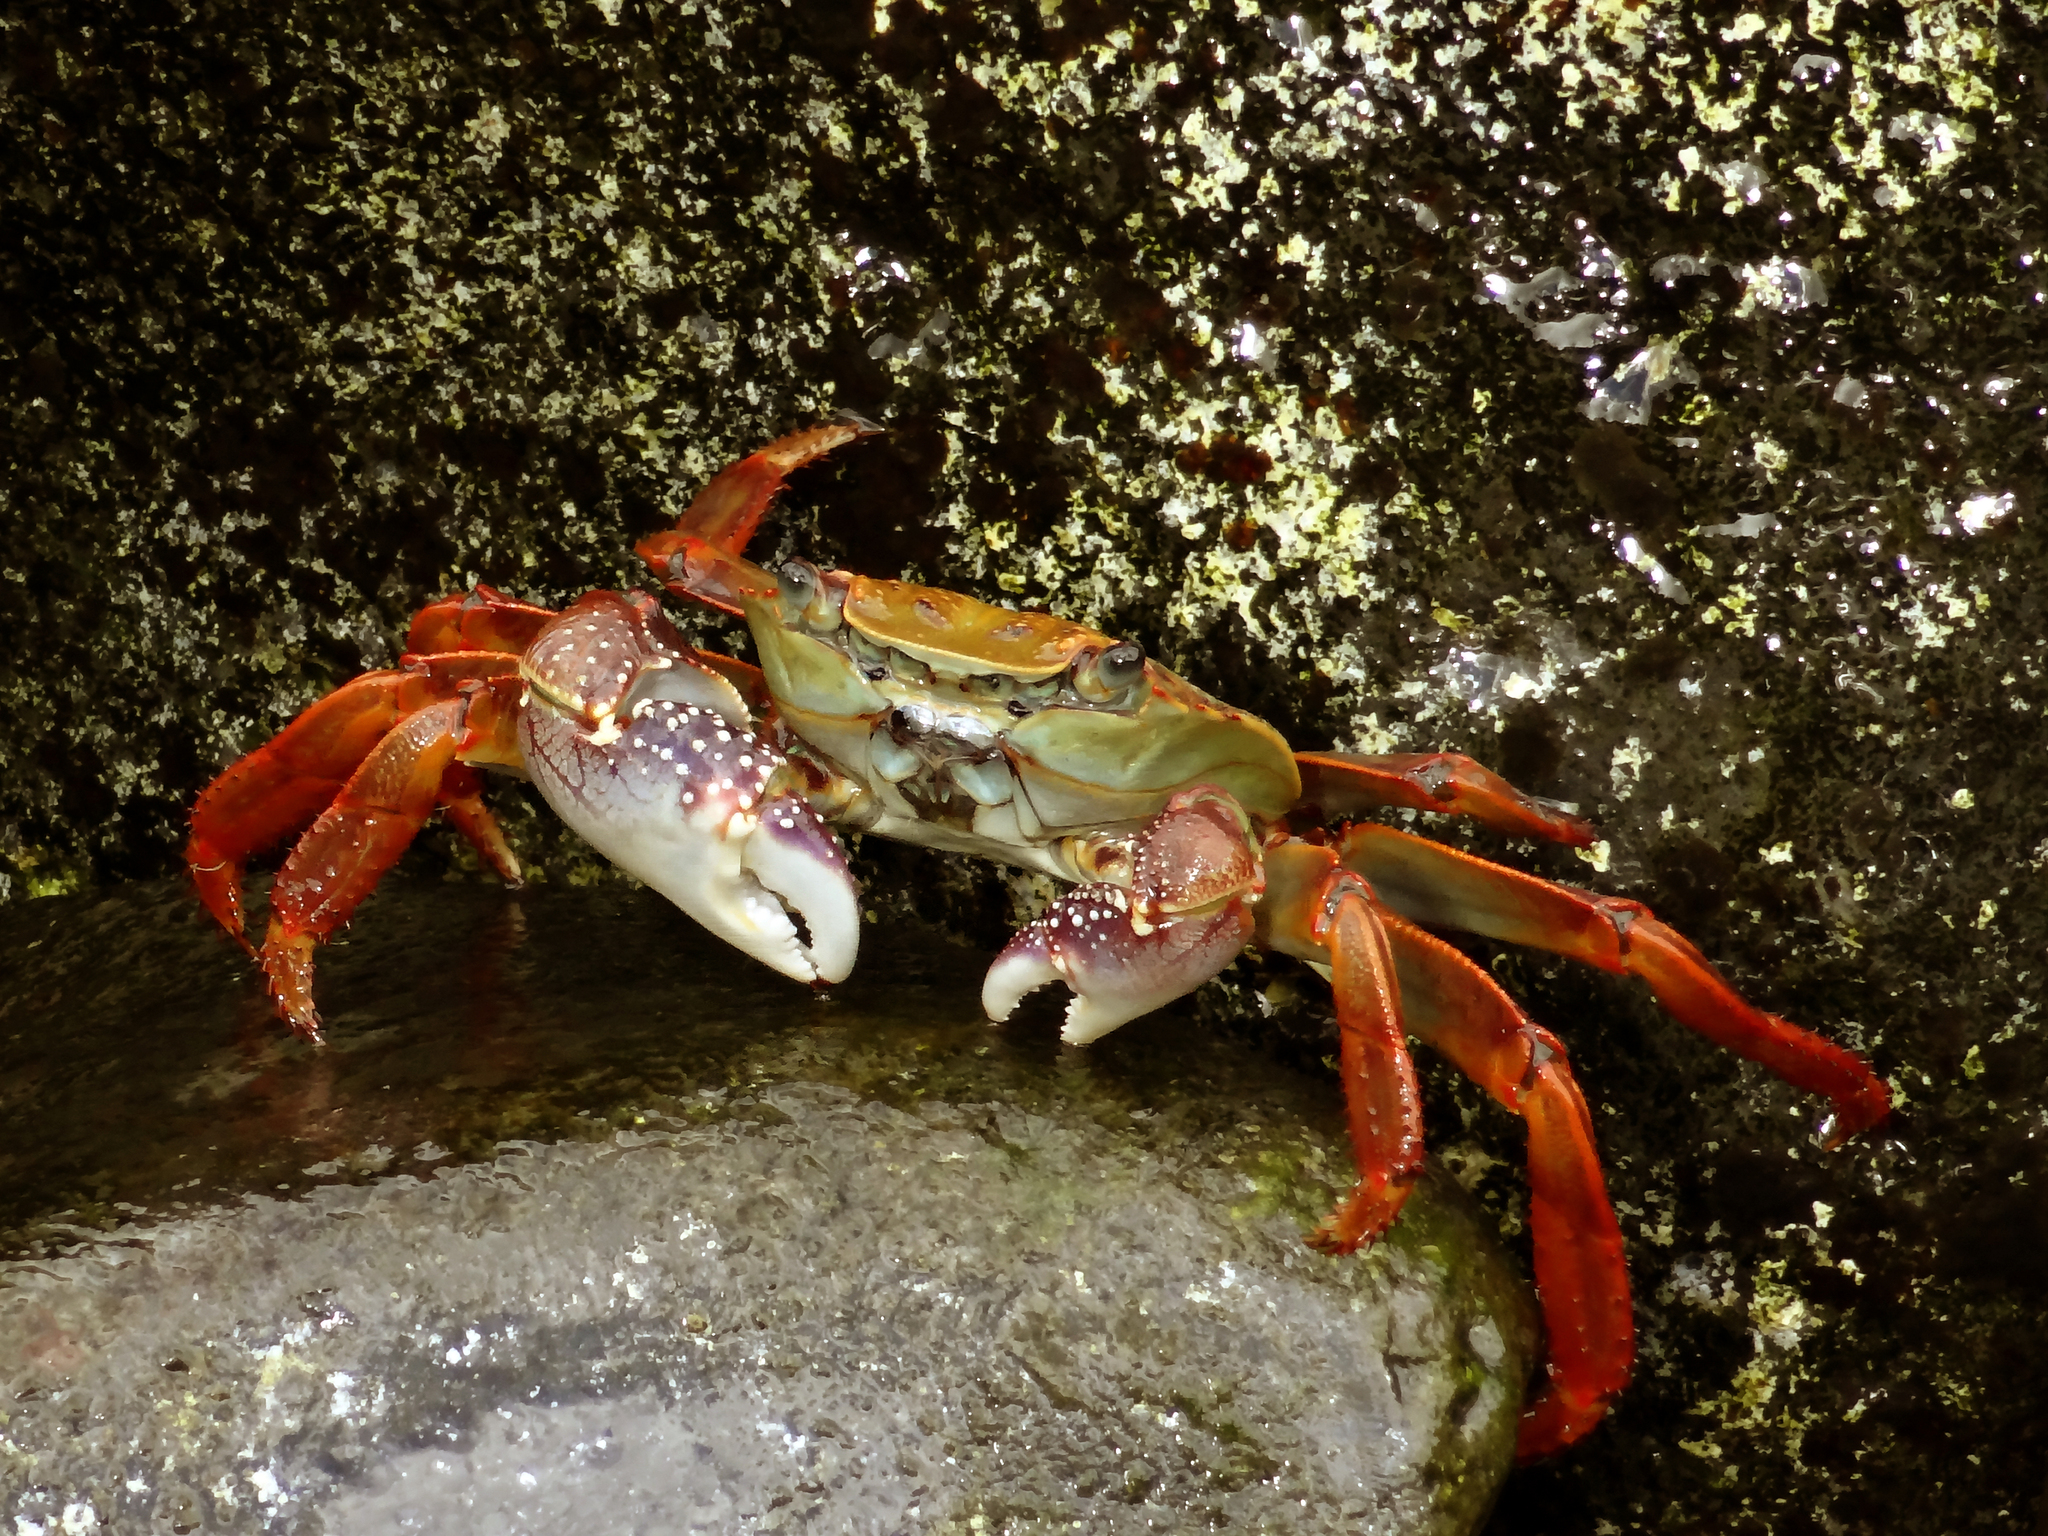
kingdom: Animalia
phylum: Arthropoda
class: Malacostraca
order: Decapoda
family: Grapsidae
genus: Leptograpsus
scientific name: Leptograpsus variegatus
